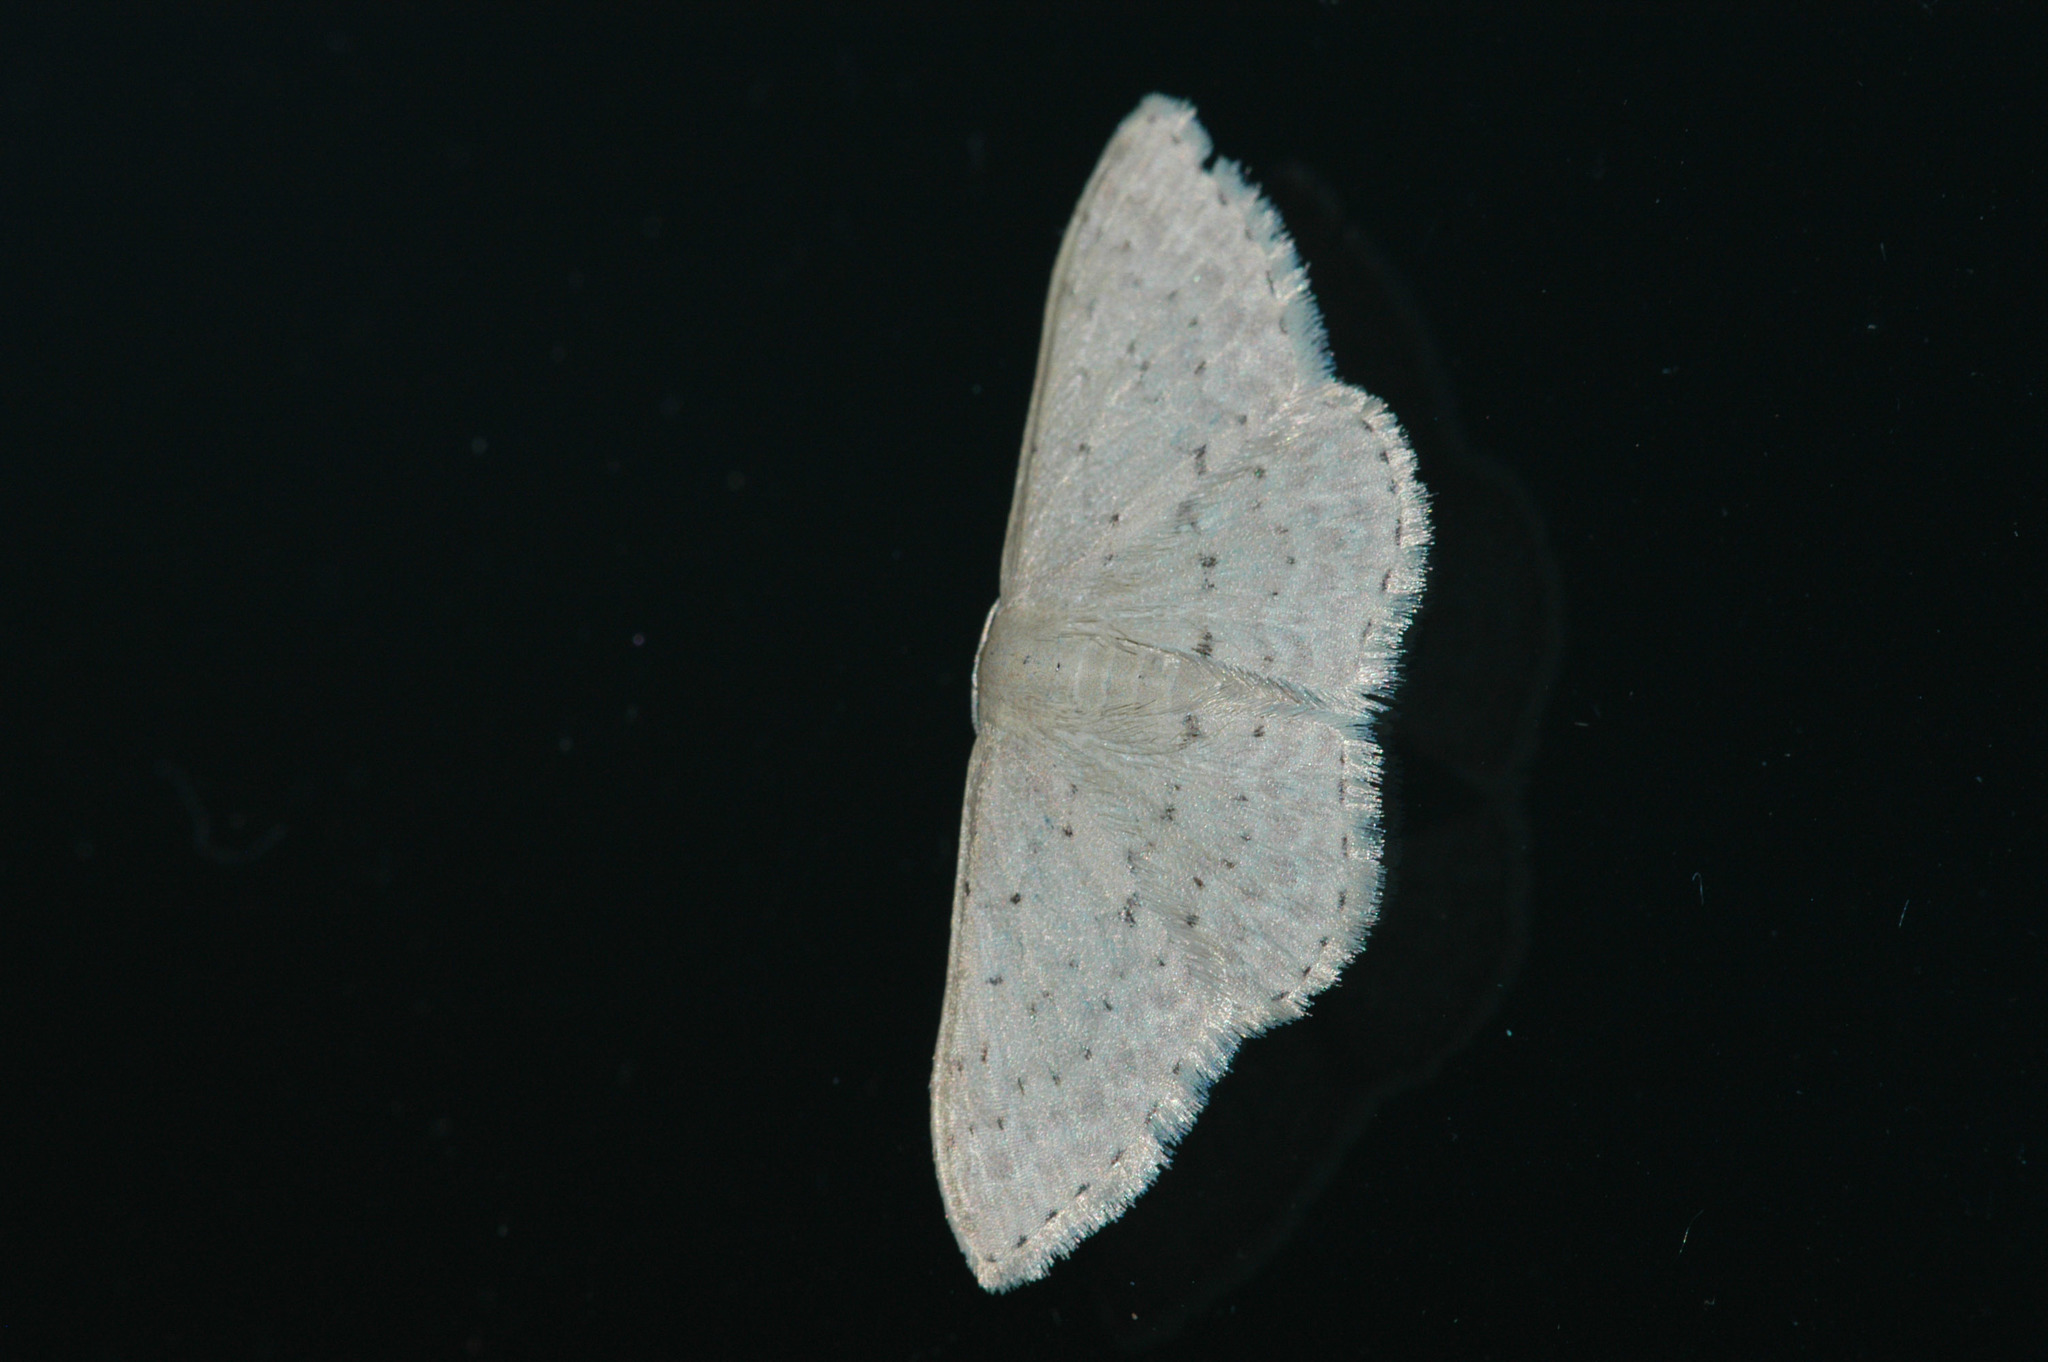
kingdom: Animalia
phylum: Arthropoda
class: Insecta
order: Lepidoptera
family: Geometridae
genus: Idaea
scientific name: Idaea philocosma
